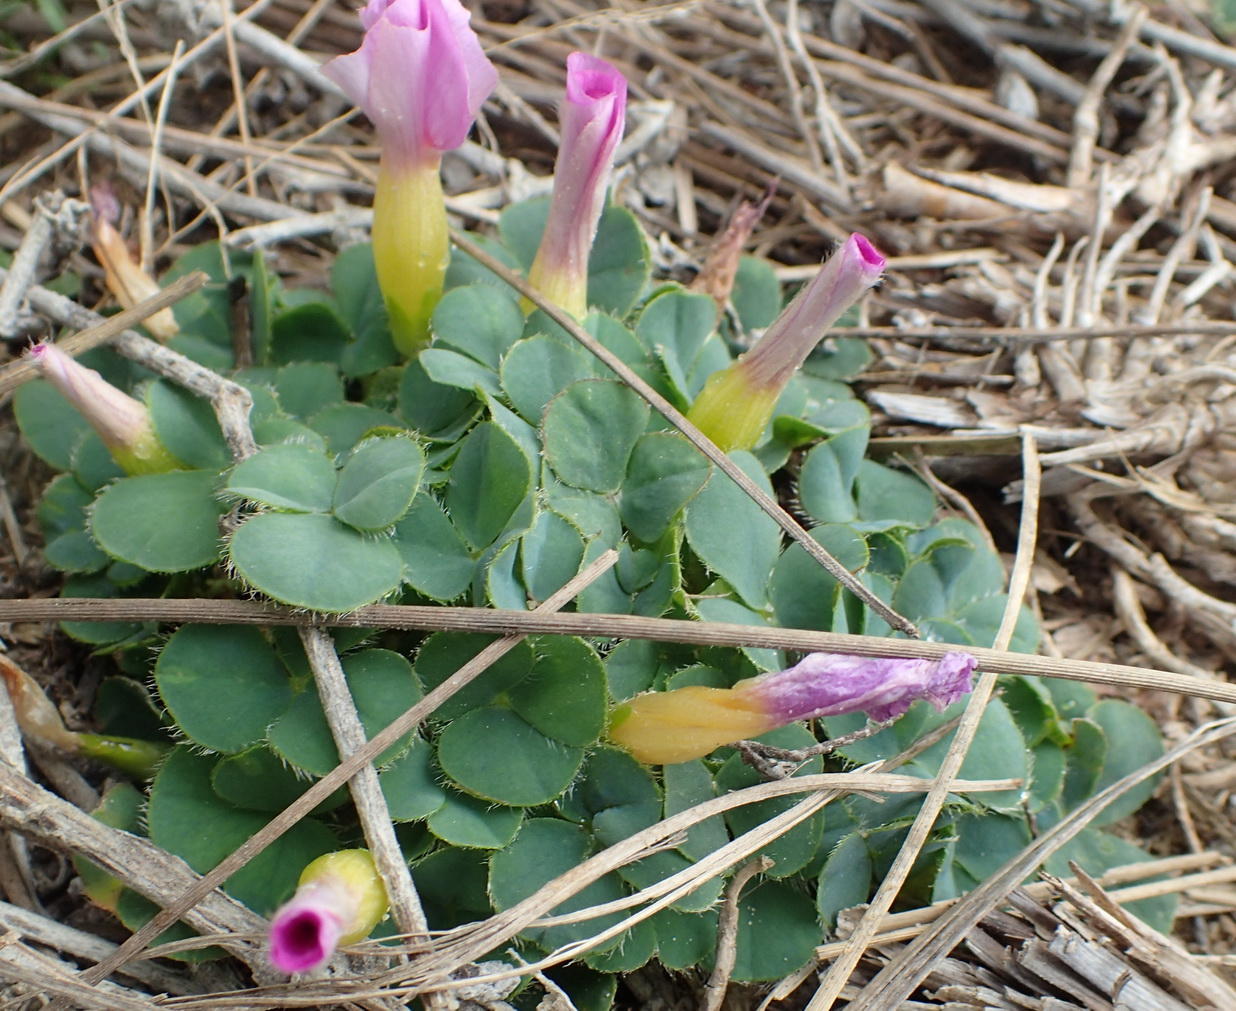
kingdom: Plantae
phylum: Tracheophyta
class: Magnoliopsida
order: Oxalidales
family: Oxalidaceae
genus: Oxalis
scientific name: Oxalis purpurea
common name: Purple woodsorrel
